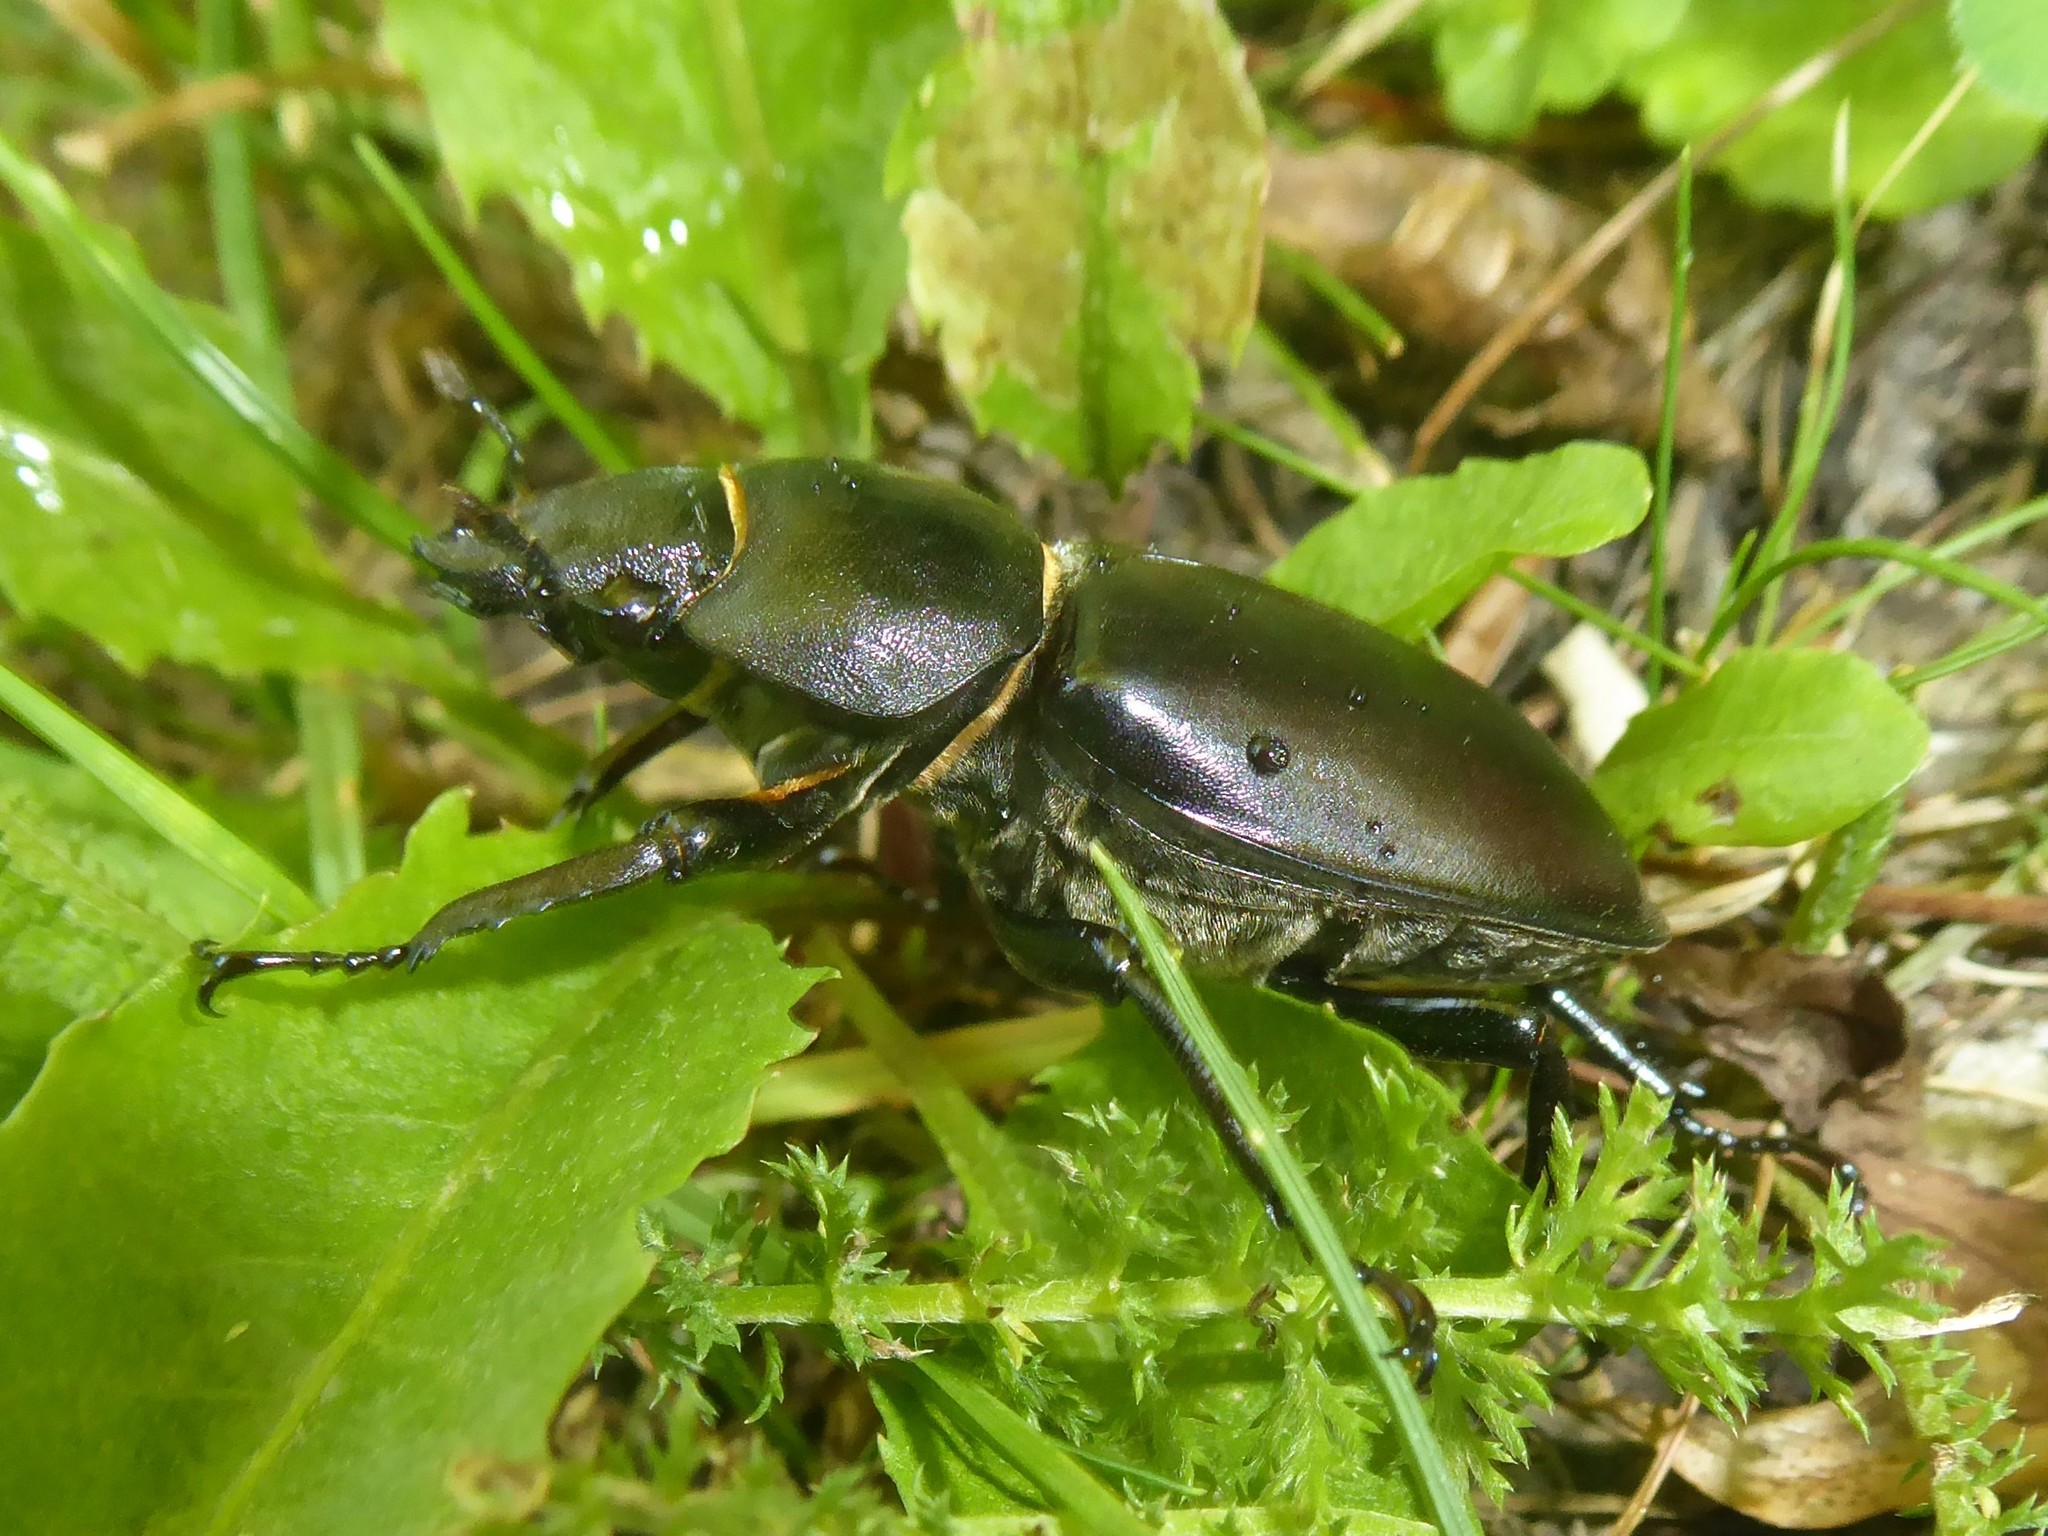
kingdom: Animalia
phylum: Arthropoda
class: Insecta
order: Coleoptera
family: Lucanidae
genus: Lucanus
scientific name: Lucanus cervus
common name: Stag beetle
